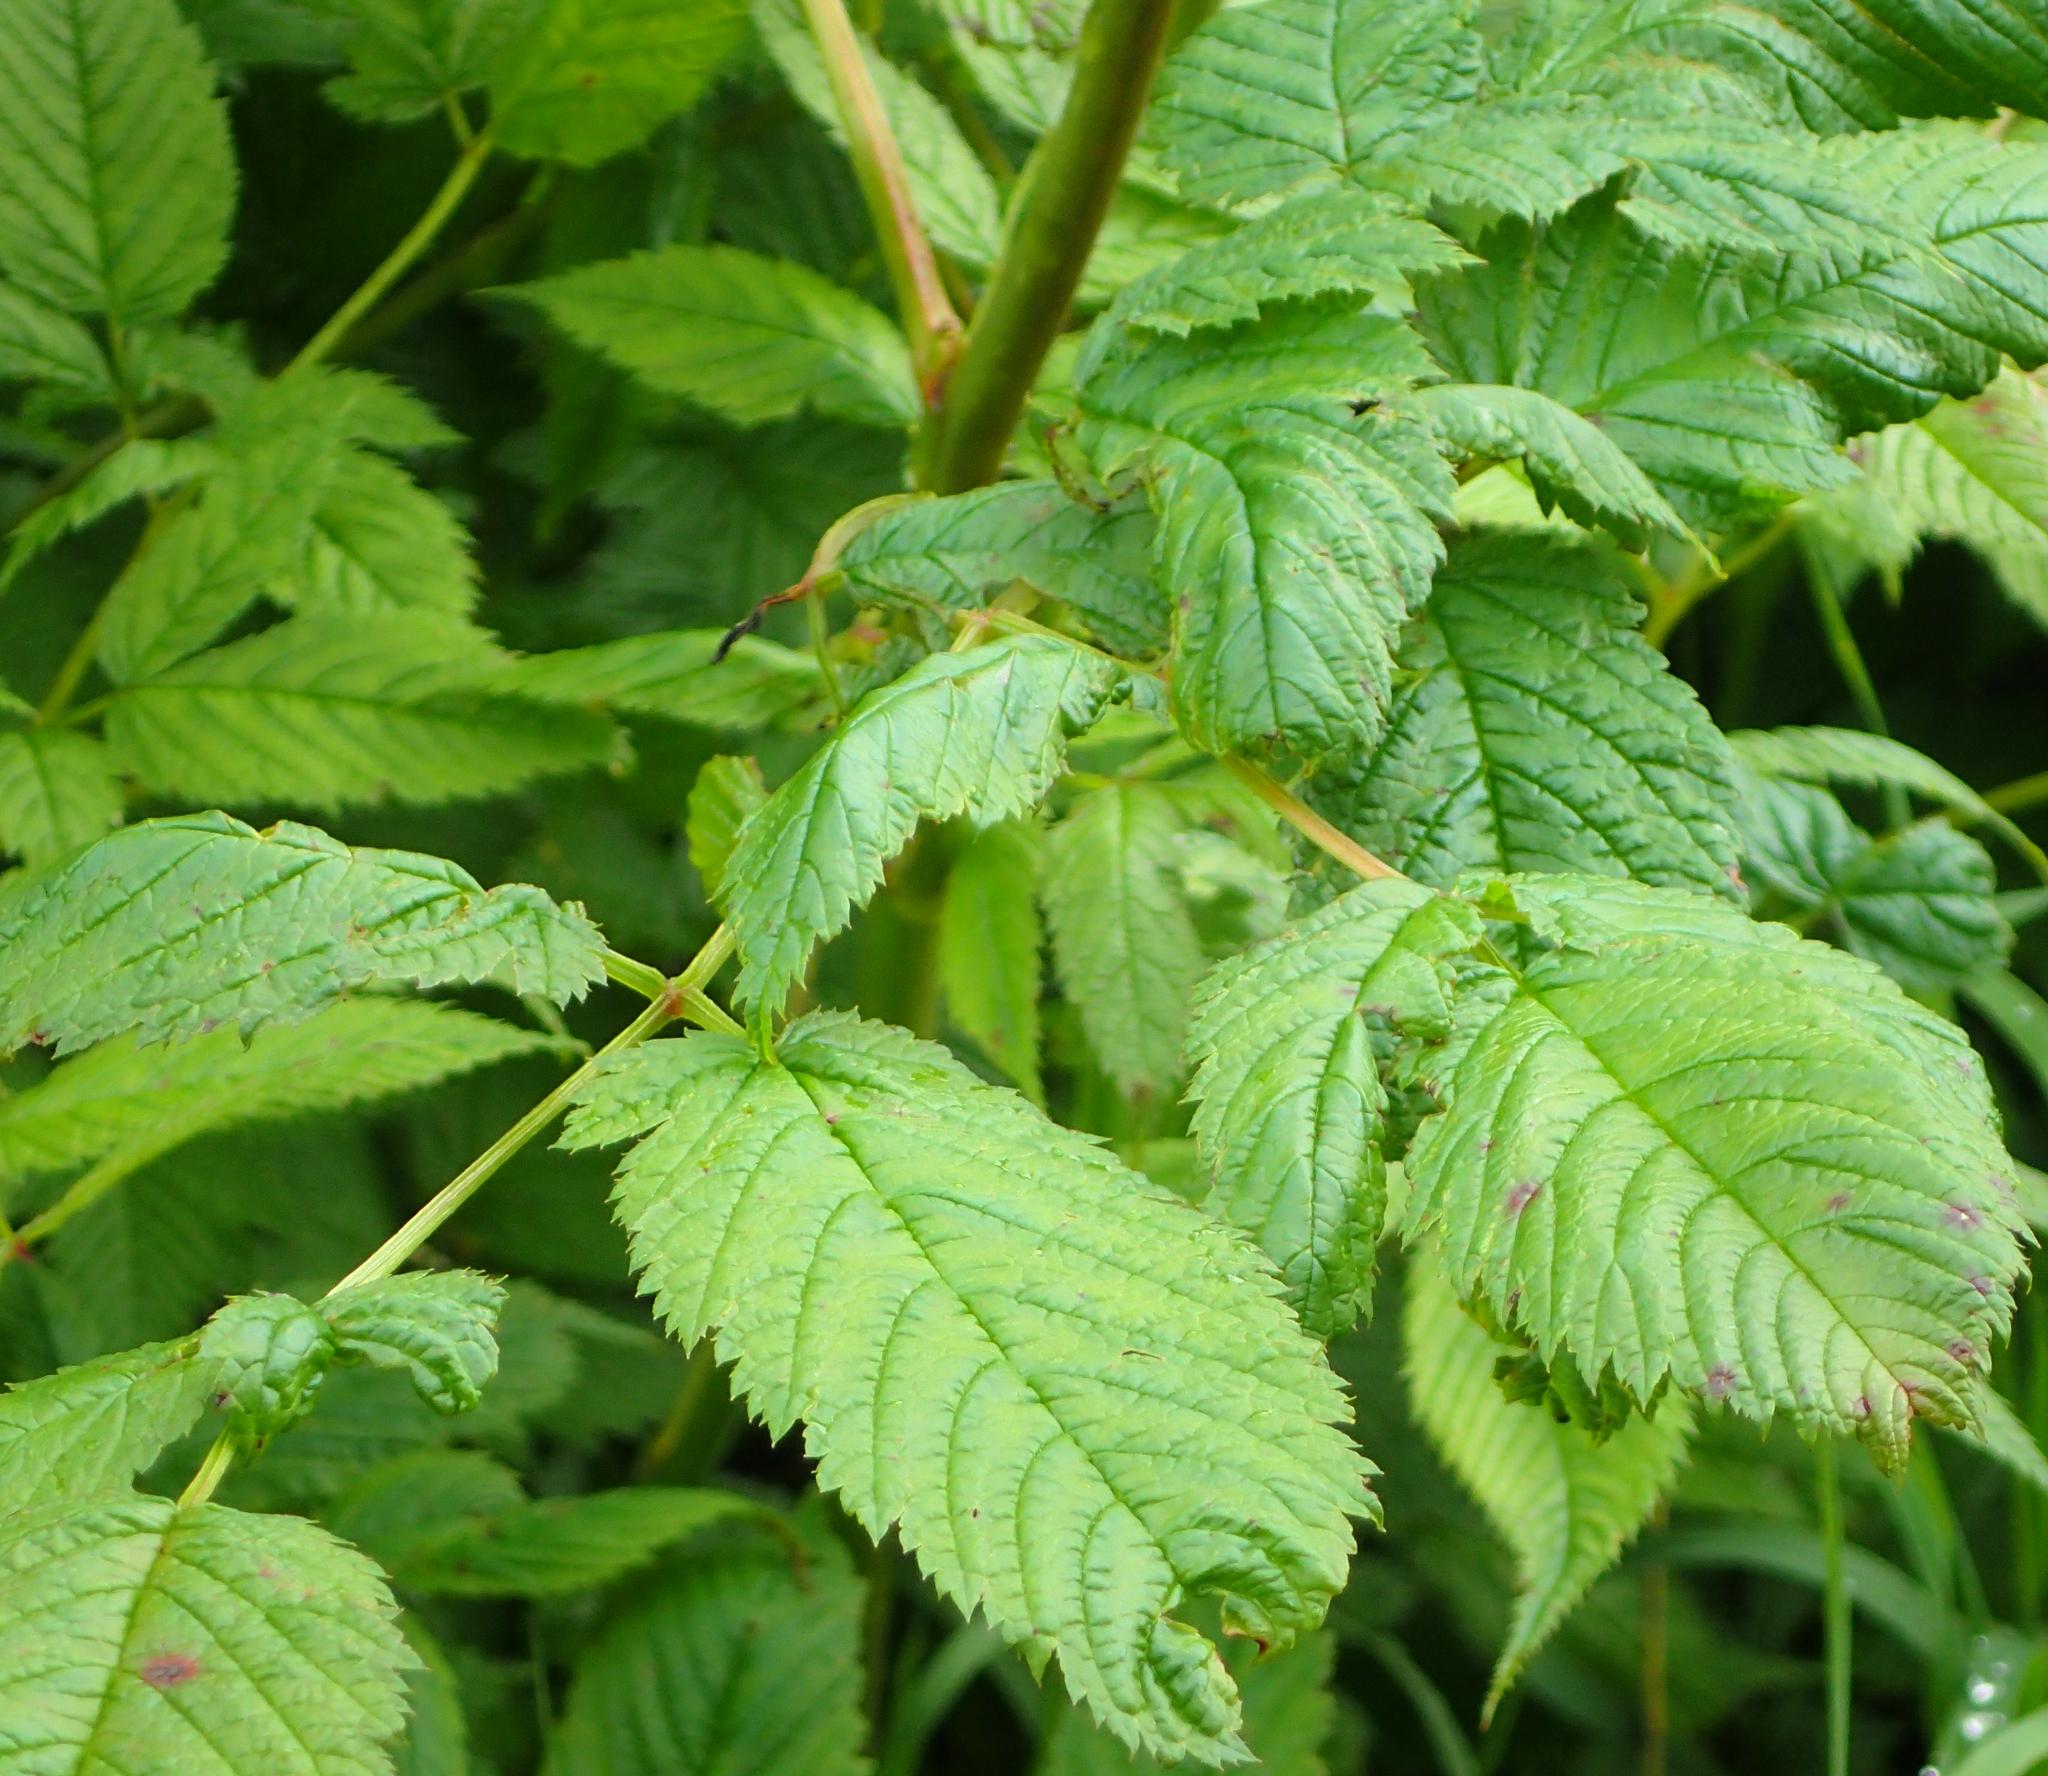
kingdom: Plantae
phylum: Tracheophyta
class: Magnoliopsida
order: Rosales
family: Rosaceae
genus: Aruncus
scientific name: Aruncus dioicus
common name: Buck's-beard
